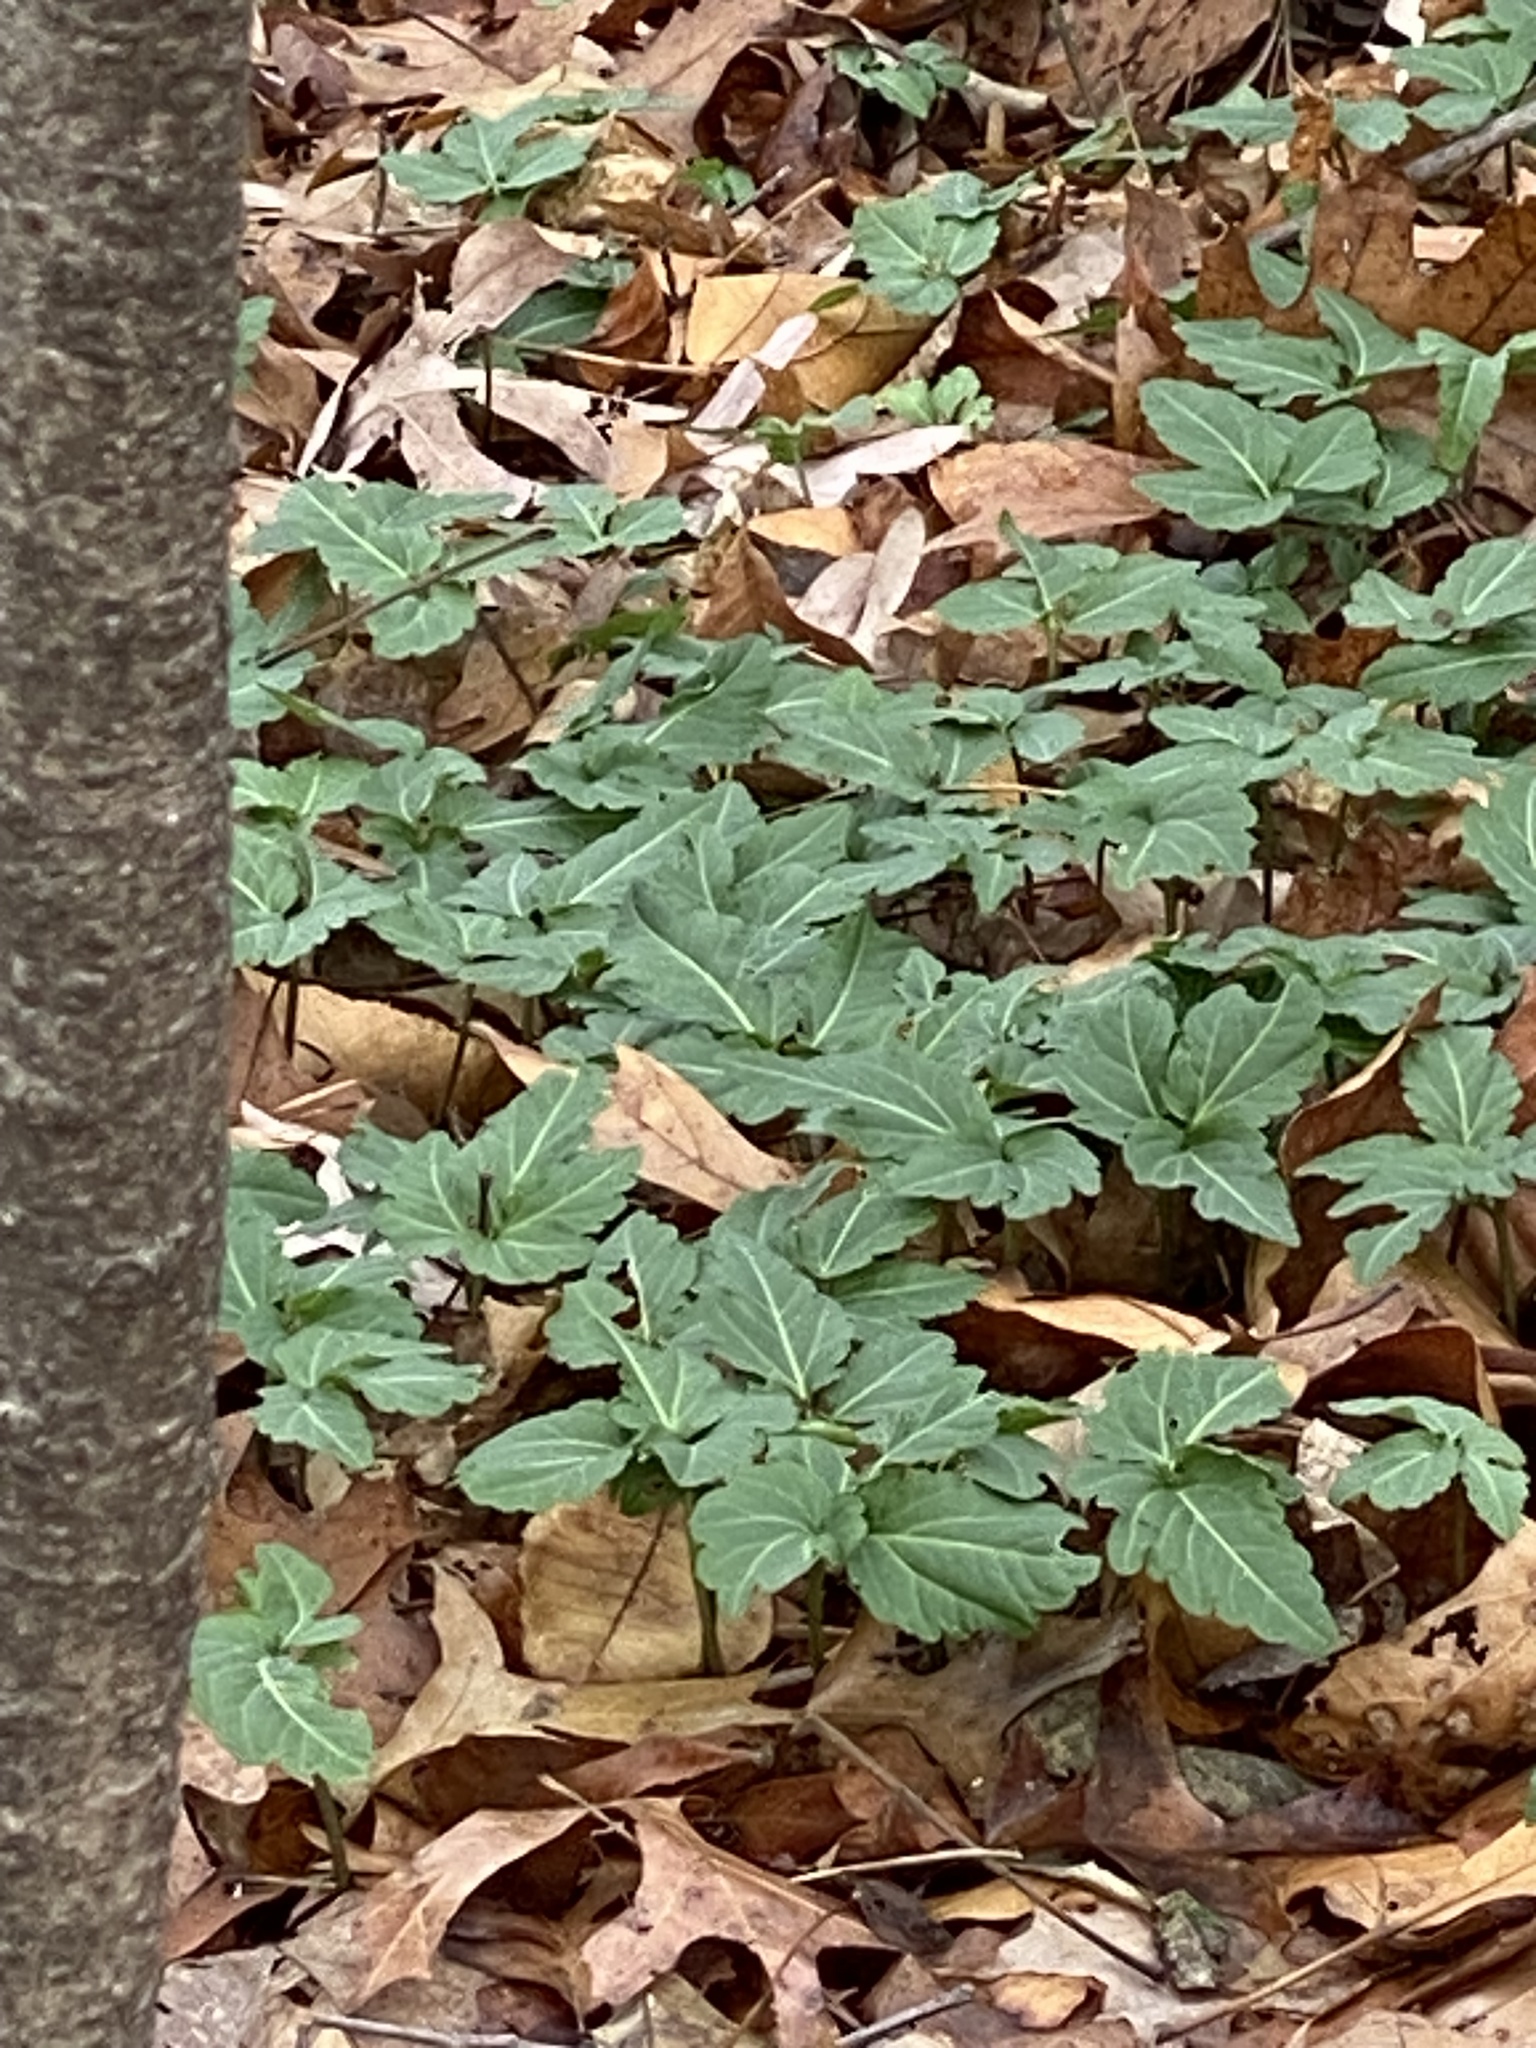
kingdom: Plantae
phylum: Tracheophyta
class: Magnoliopsida
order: Brassicales
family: Brassicaceae
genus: Cardamine
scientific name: Cardamine diphylla
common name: Broad-leaved toothwort
